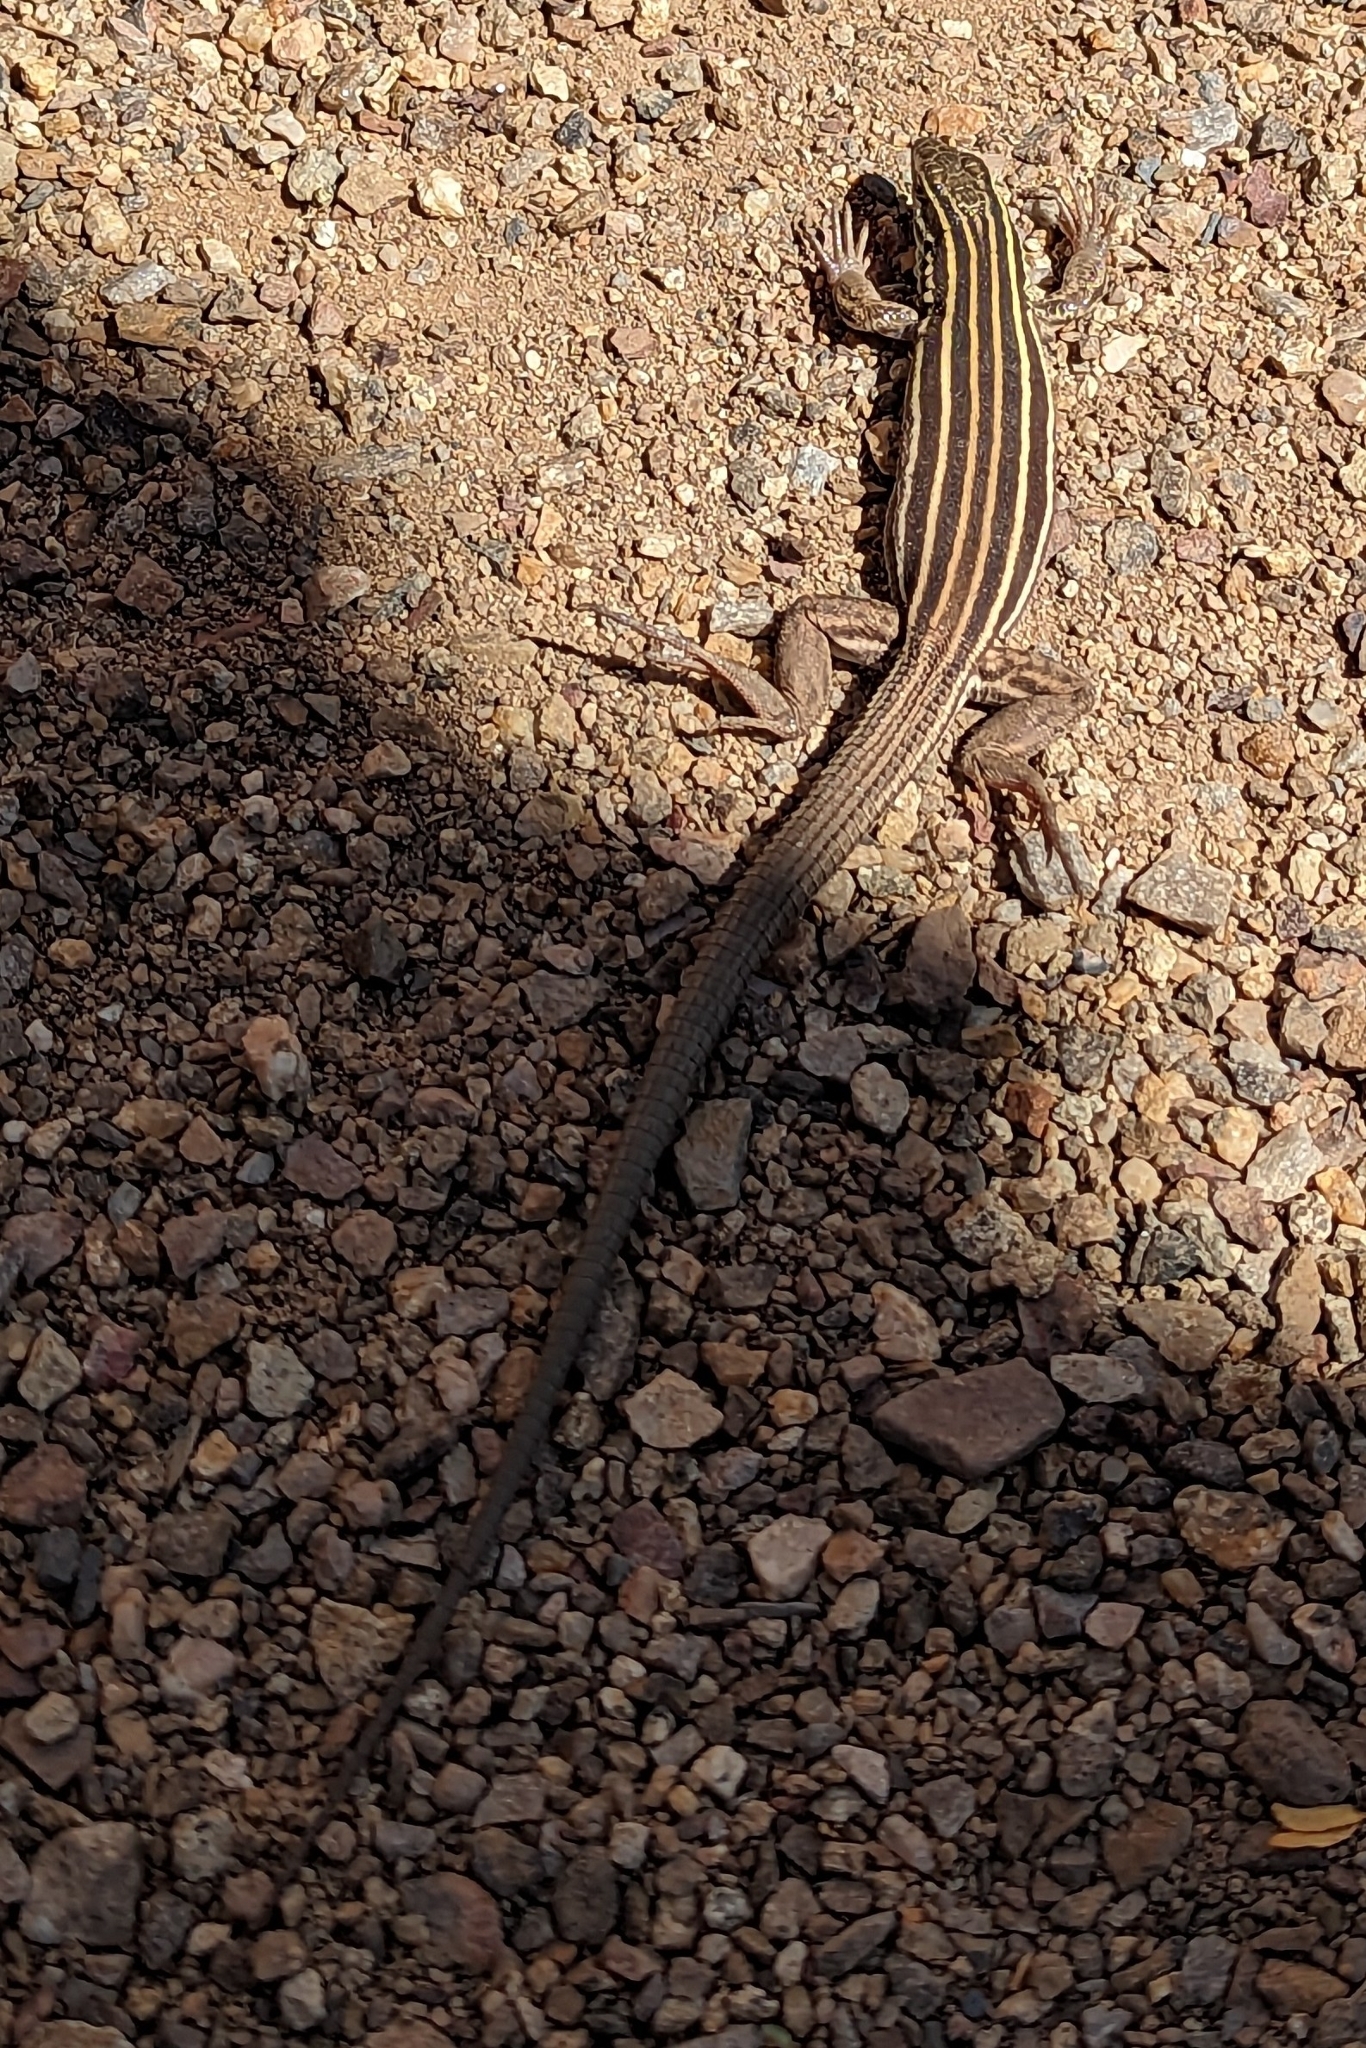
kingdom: Animalia
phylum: Chordata
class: Squamata
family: Teiidae
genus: Aspidoscelis
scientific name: Aspidoscelis uniparens
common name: Desert grassland whiptail
